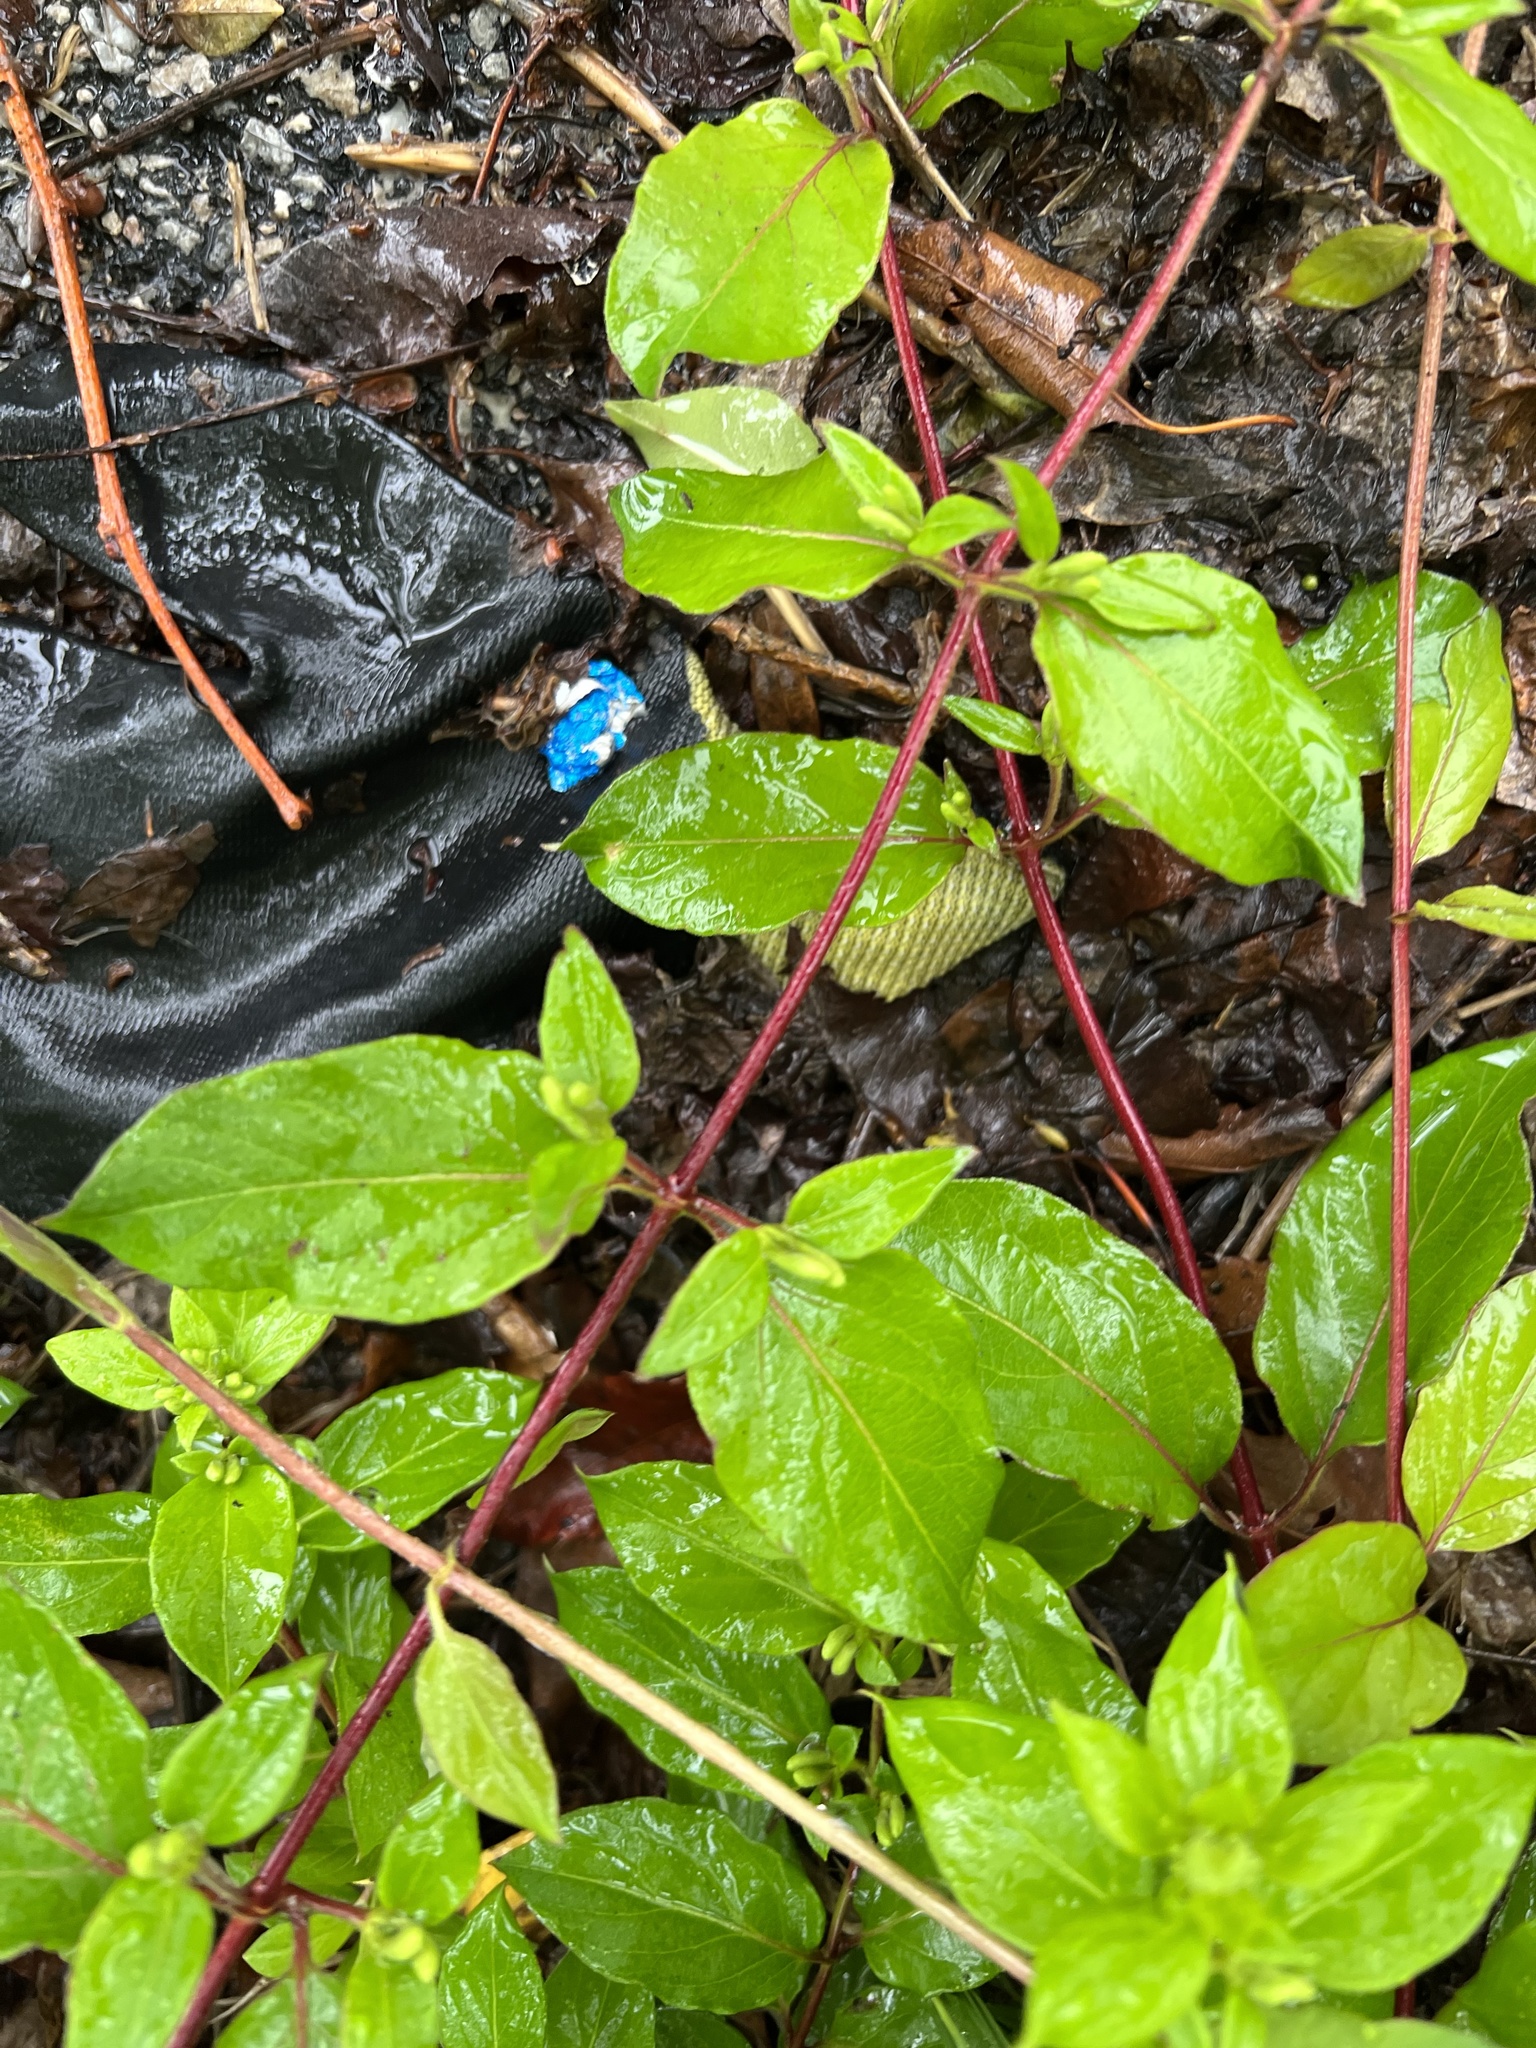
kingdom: Plantae
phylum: Tracheophyta
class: Magnoliopsida
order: Dipsacales
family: Caprifoliaceae
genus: Lonicera
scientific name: Lonicera japonica
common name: Japanese honeysuckle
